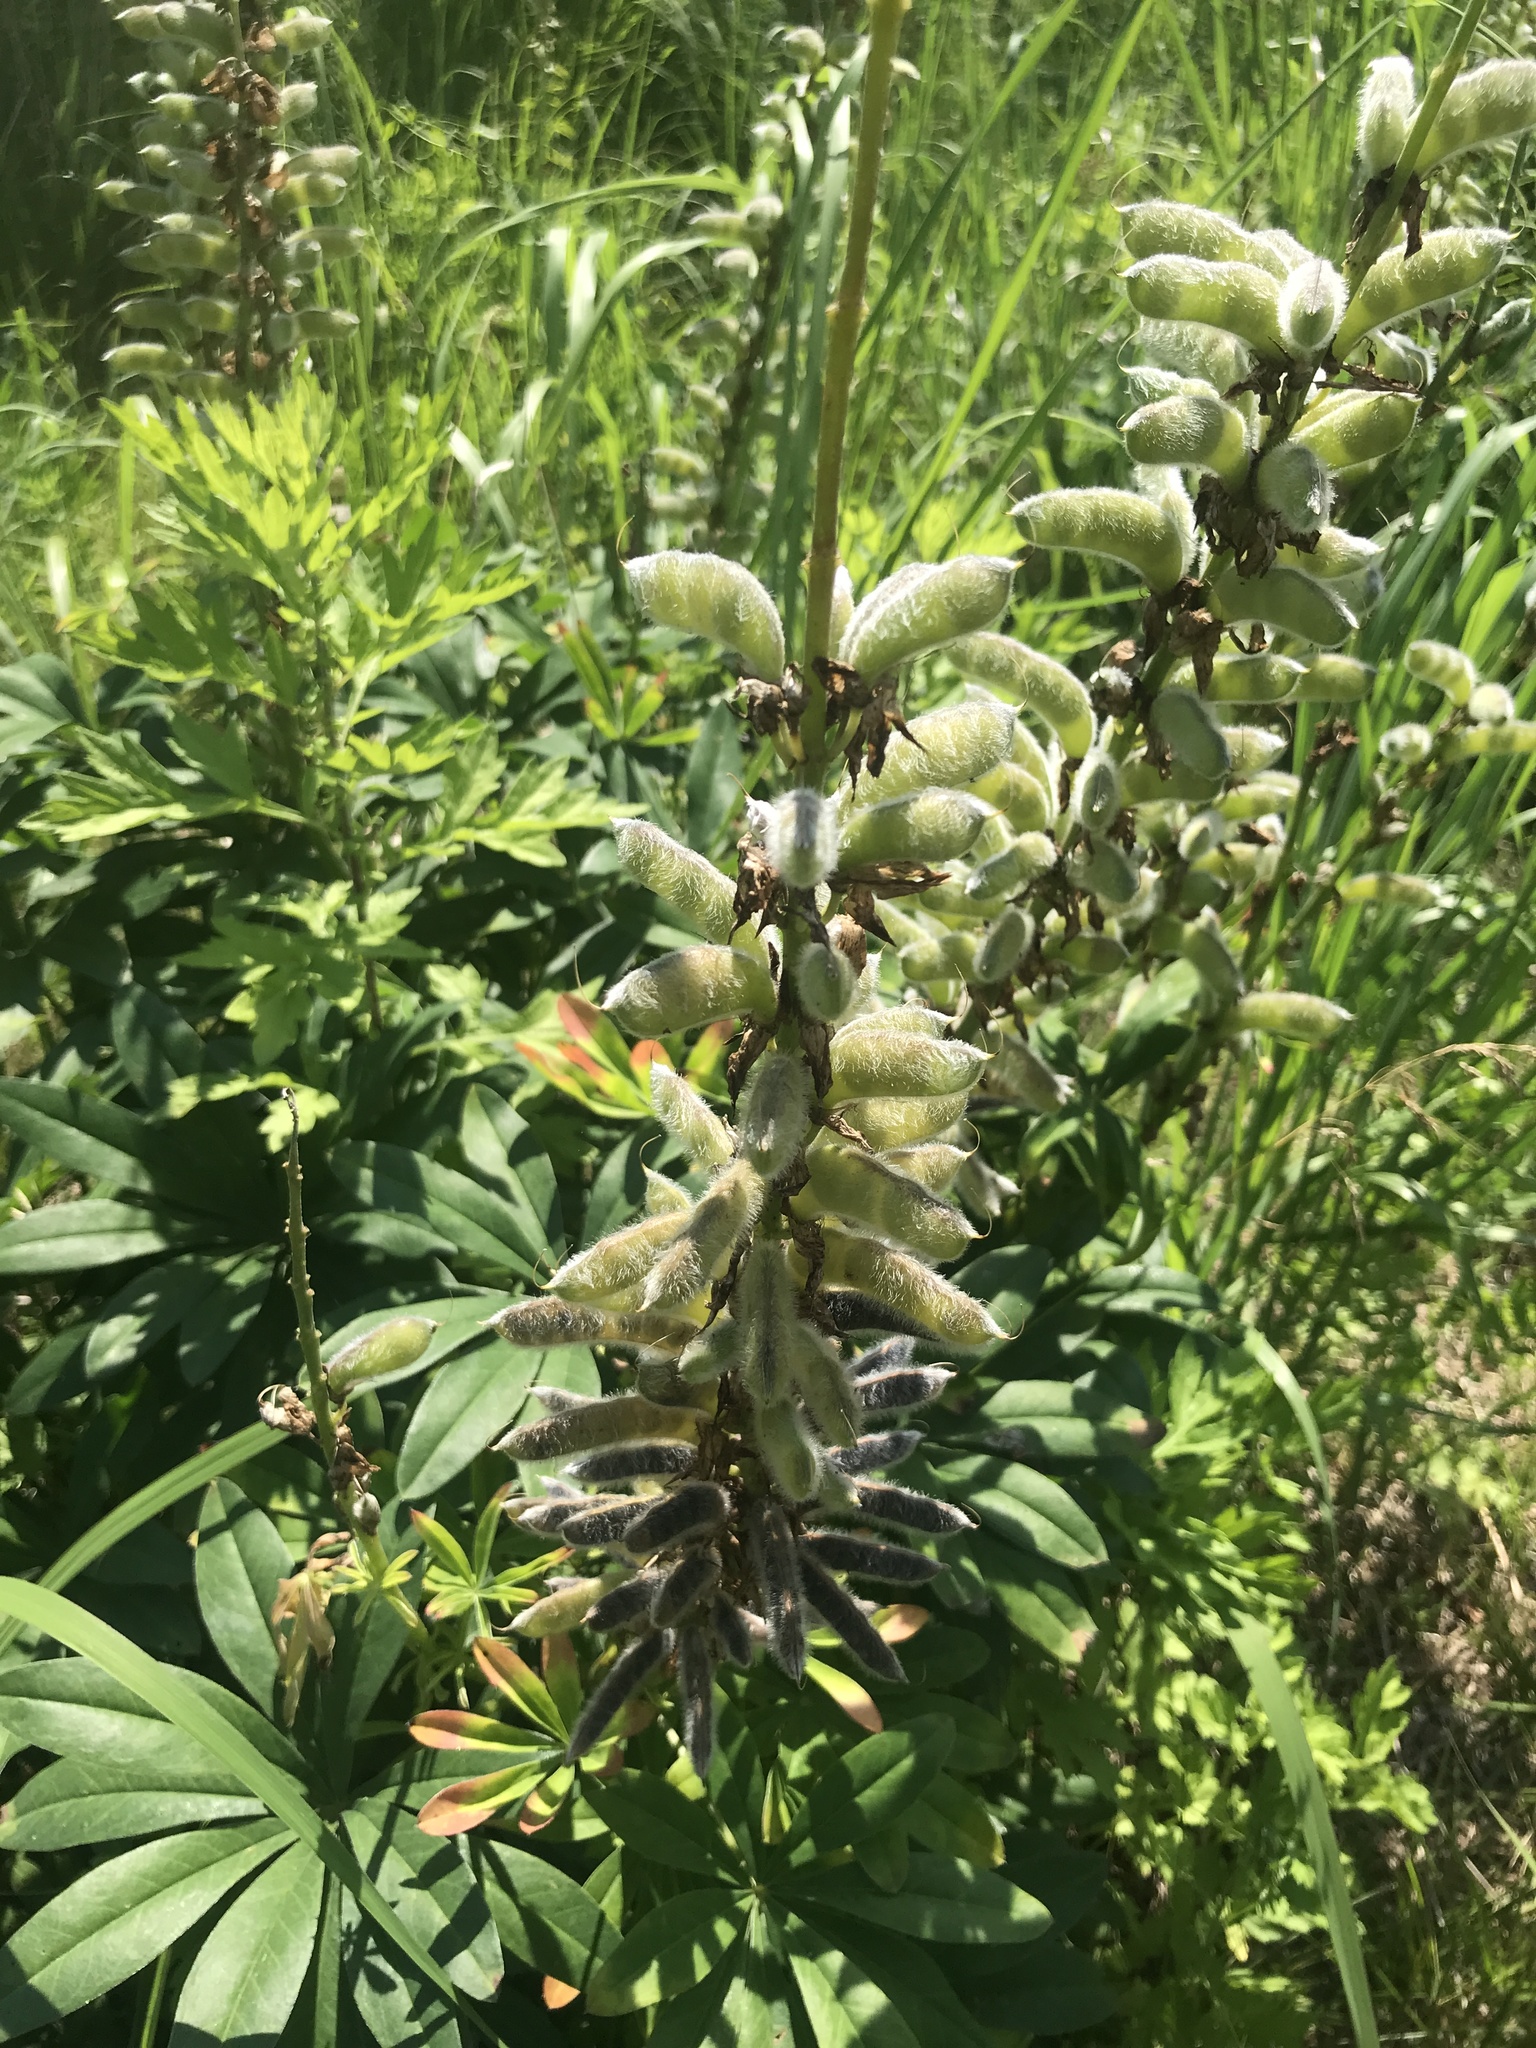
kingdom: Plantae
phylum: Tracheophyta
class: Magnoliopsida
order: Fabales
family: Fabaceae
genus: Lupinus
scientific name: Lupinus polyphyllus
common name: Garden lupin
